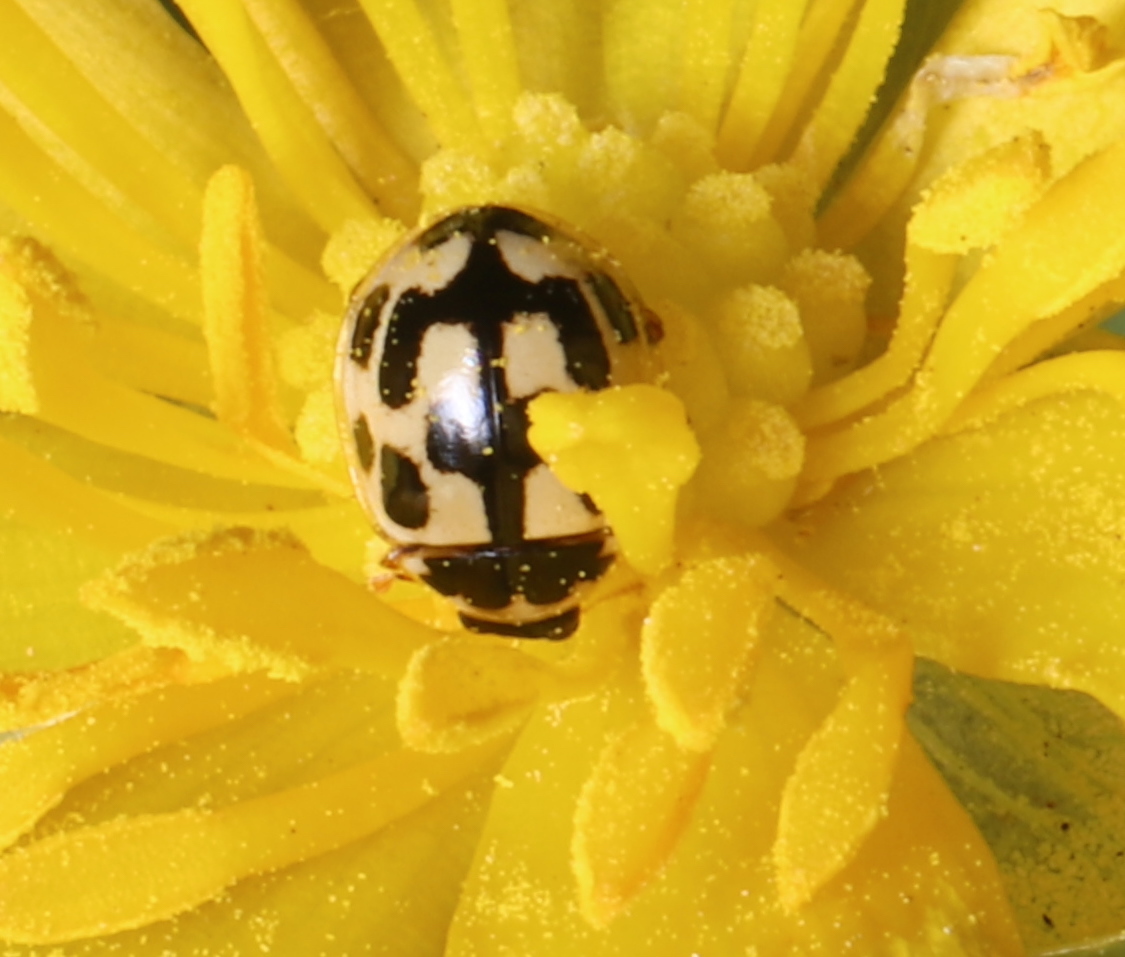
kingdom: Animalia
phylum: Arthropoda
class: Insecta
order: Coleoptera
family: Coccinellidae
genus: Propylaea
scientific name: Propylaea quatuordecimpunctata
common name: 14-spotted ladybird beetle
